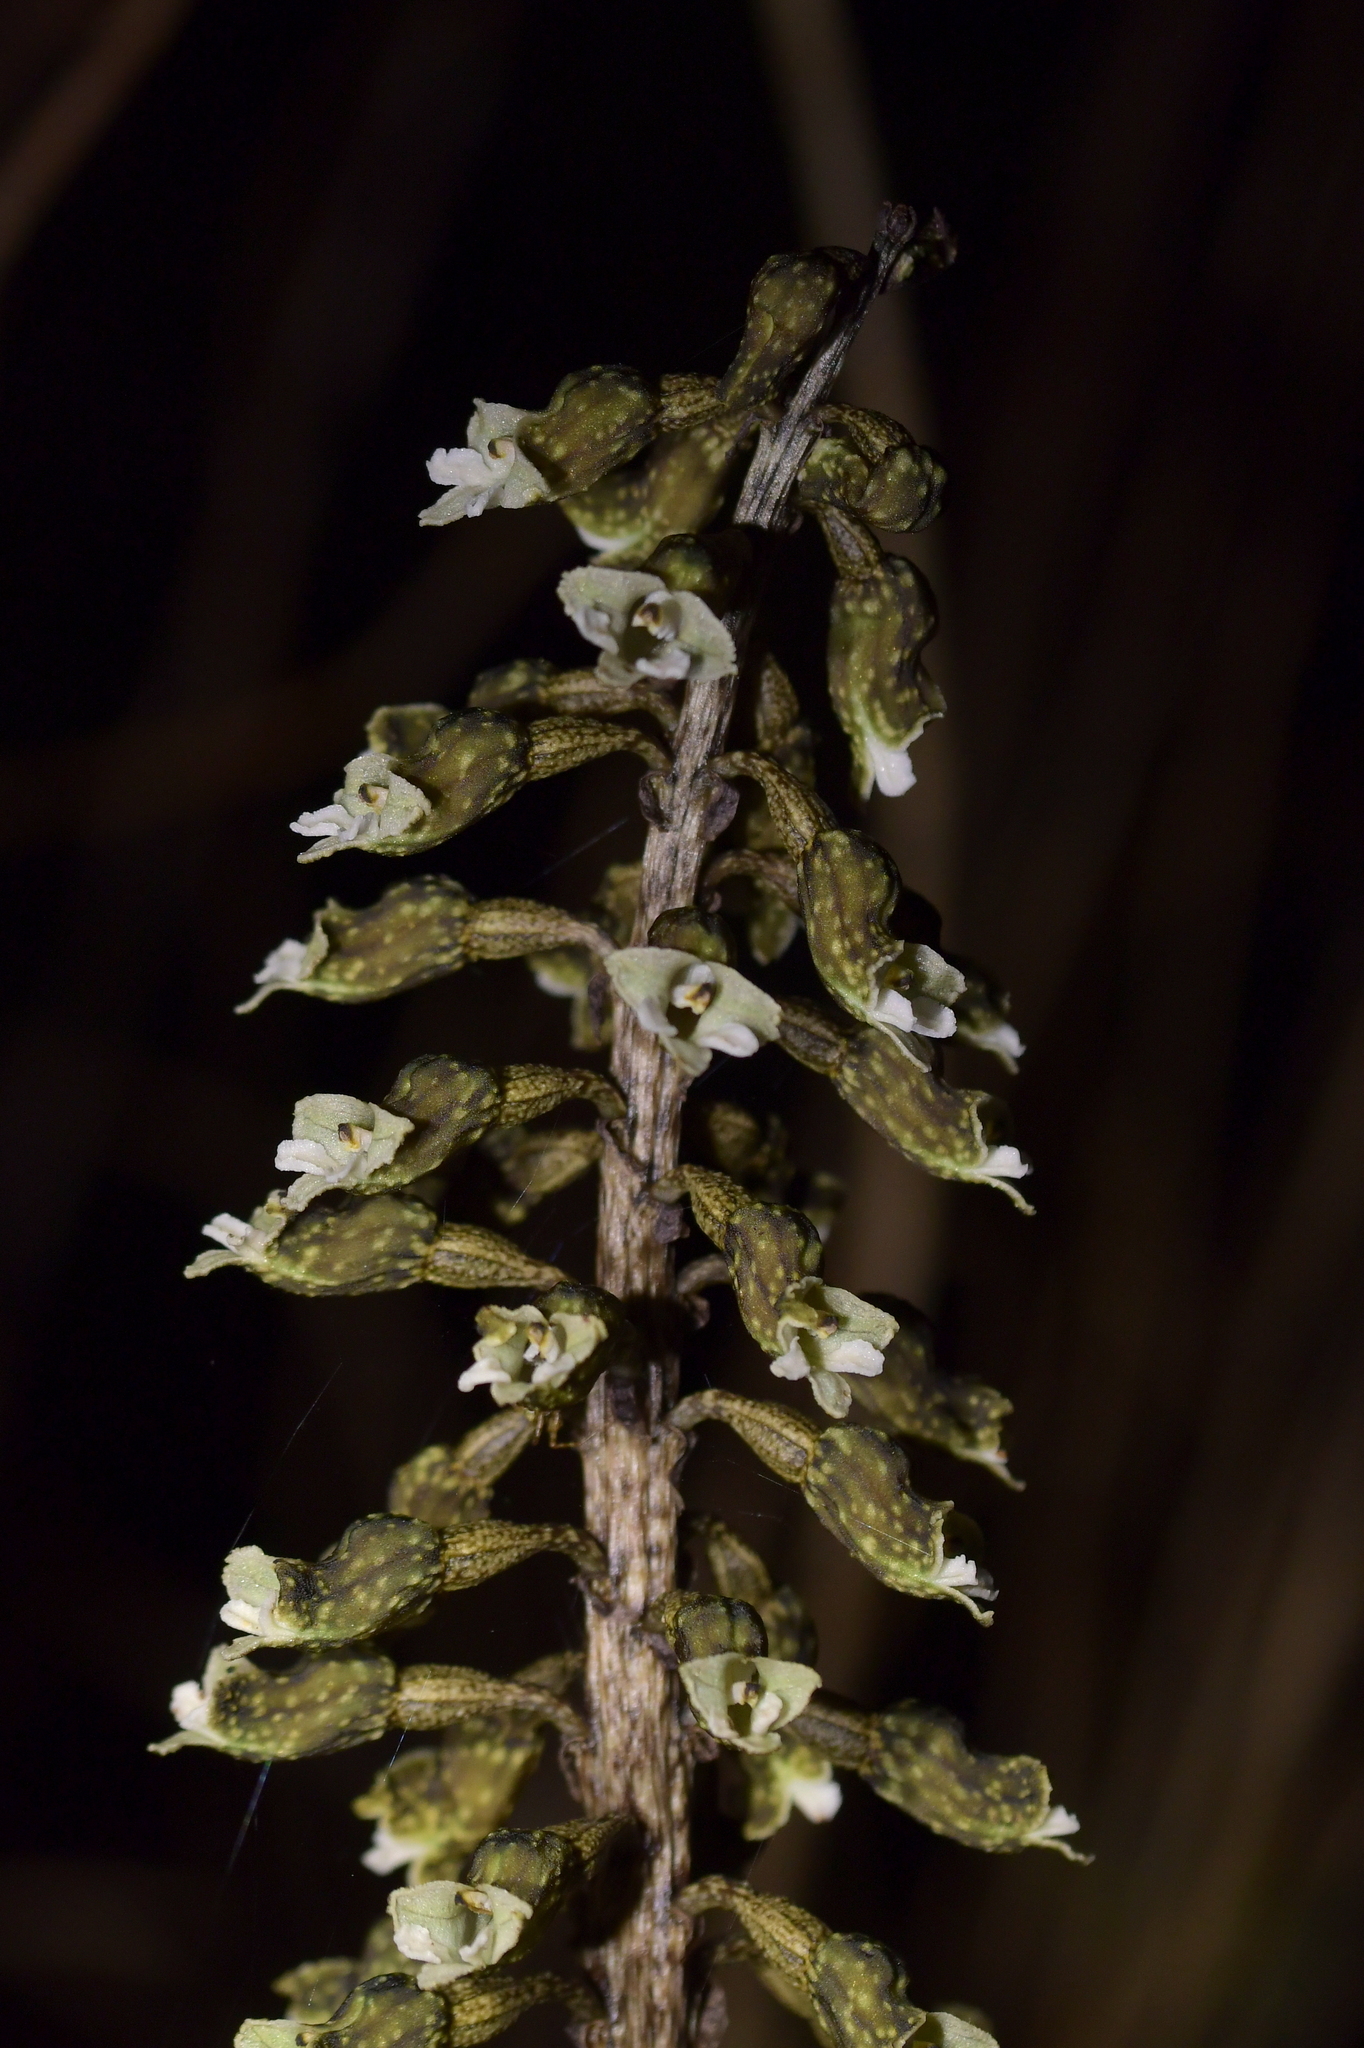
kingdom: Plantae
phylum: Tracheophyta
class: Liliopsida
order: Asparagales
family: Orchidaceae
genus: Gastrodia
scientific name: Gastrodia cunninghamii
